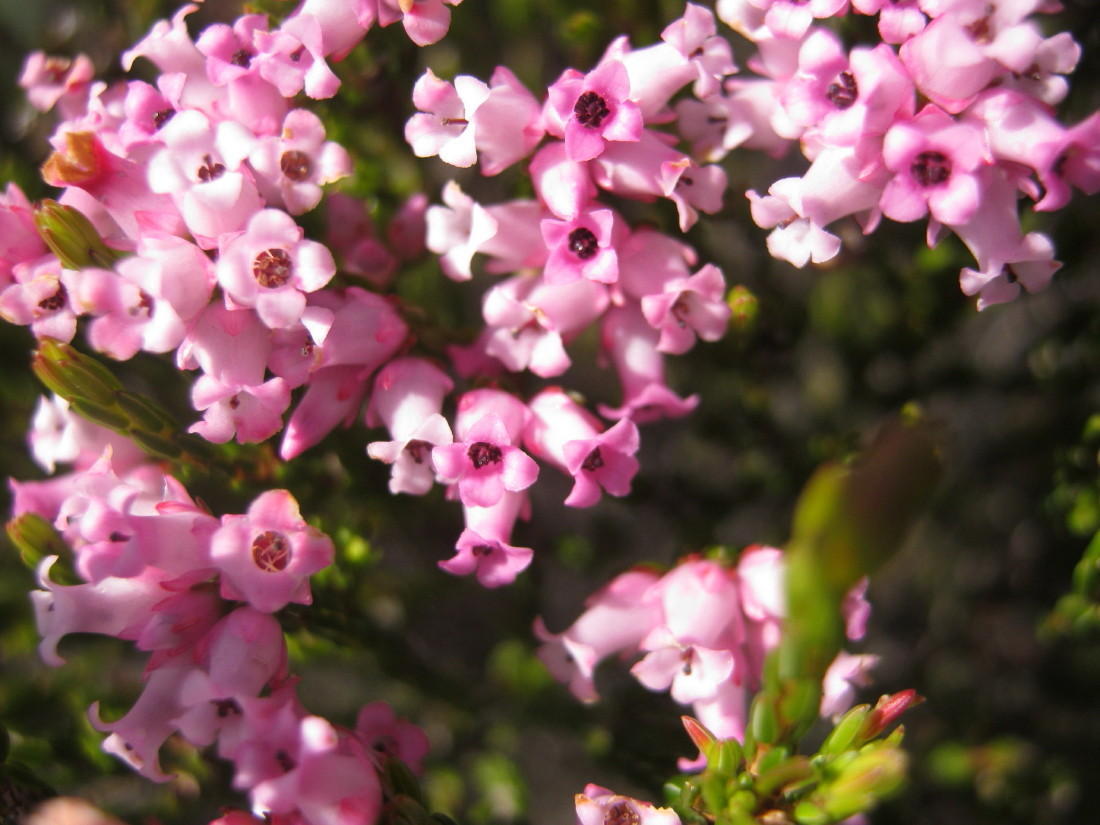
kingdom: Plantae
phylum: Tracheophyta
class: Magnoliopsida
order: Ericales
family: Ericaceae
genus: Erica
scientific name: Erica steinbergiana
